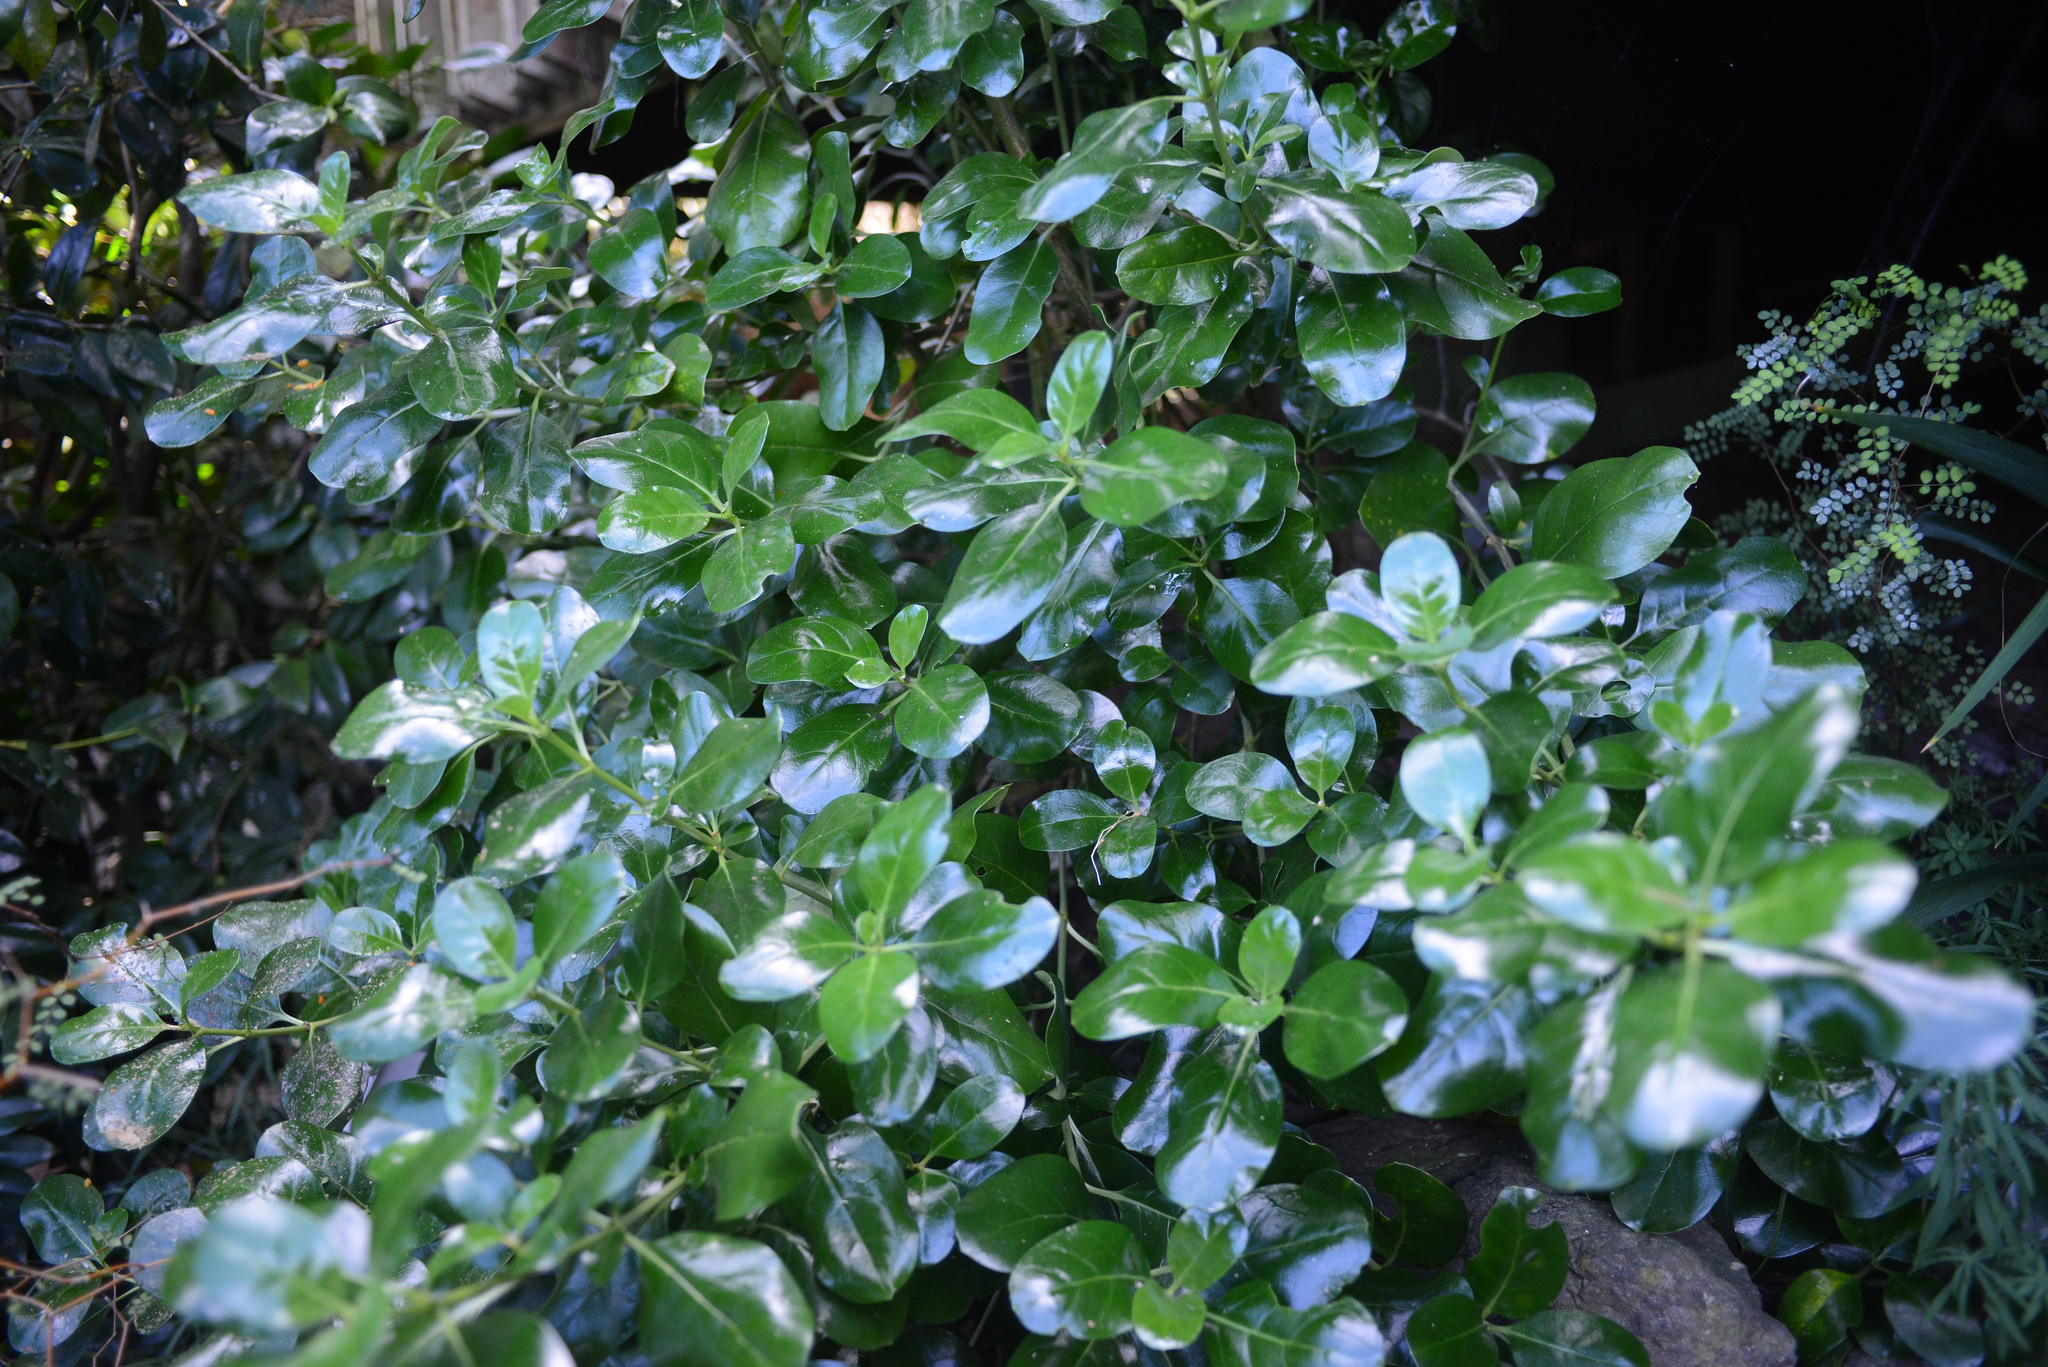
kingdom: Plantae
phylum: Tracheophyta
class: Magnoliopsida
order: Gentianales
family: Rubiaceae
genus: Coprosma
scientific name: Coprosma repens
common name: Tree bedstraw
